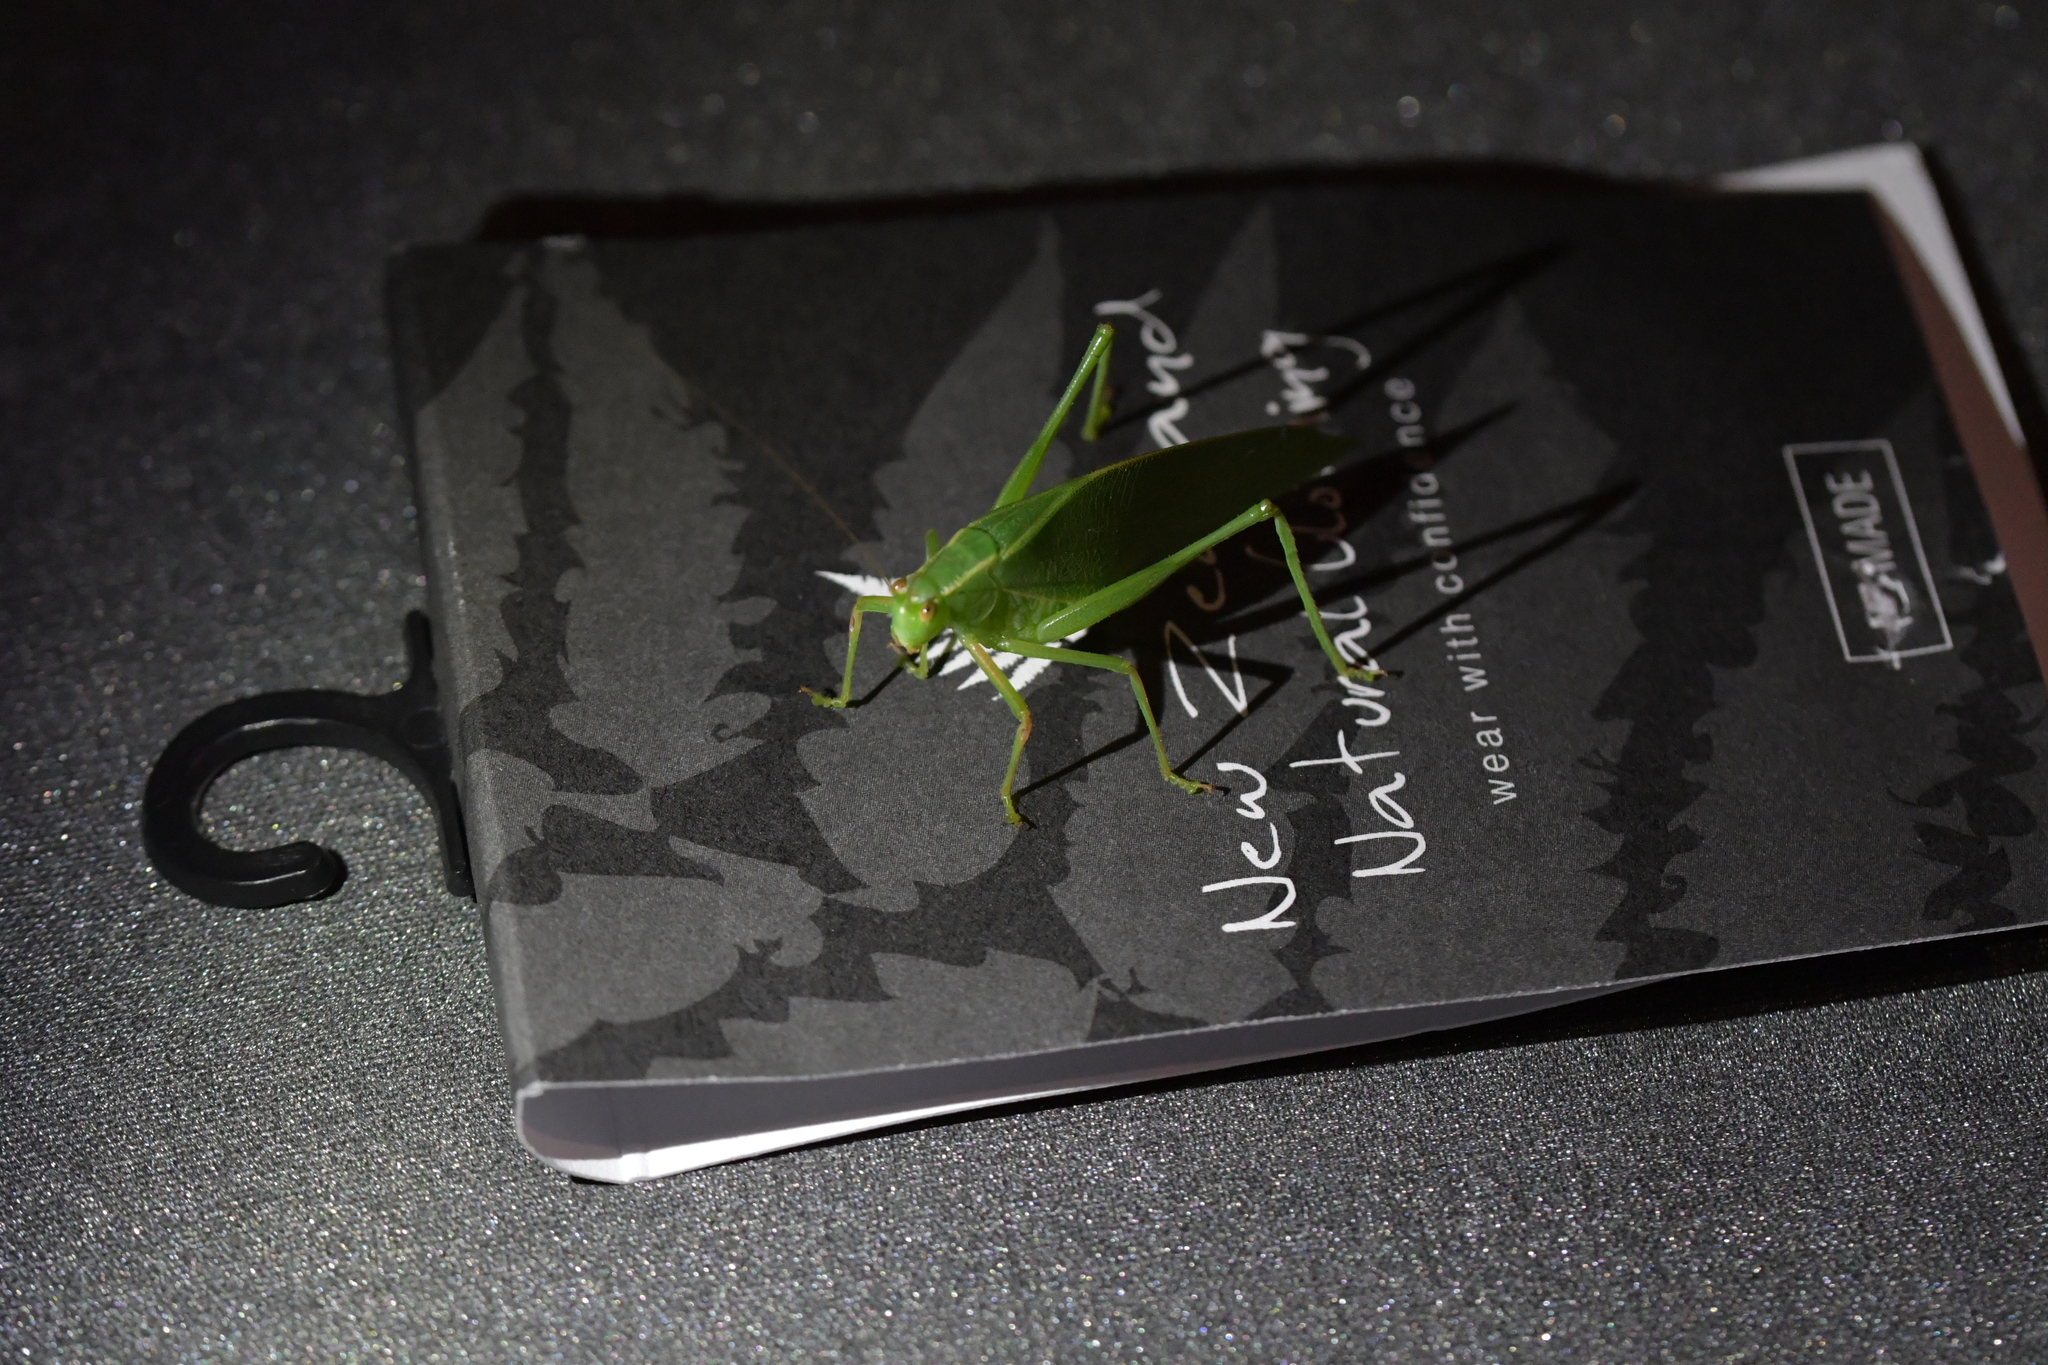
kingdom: Animalia
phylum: Arthropoda
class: Insecta
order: Orthoptera
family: Tettigoniidae
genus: Caedicia
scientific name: Caedicia simplex
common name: Common garden katydid
